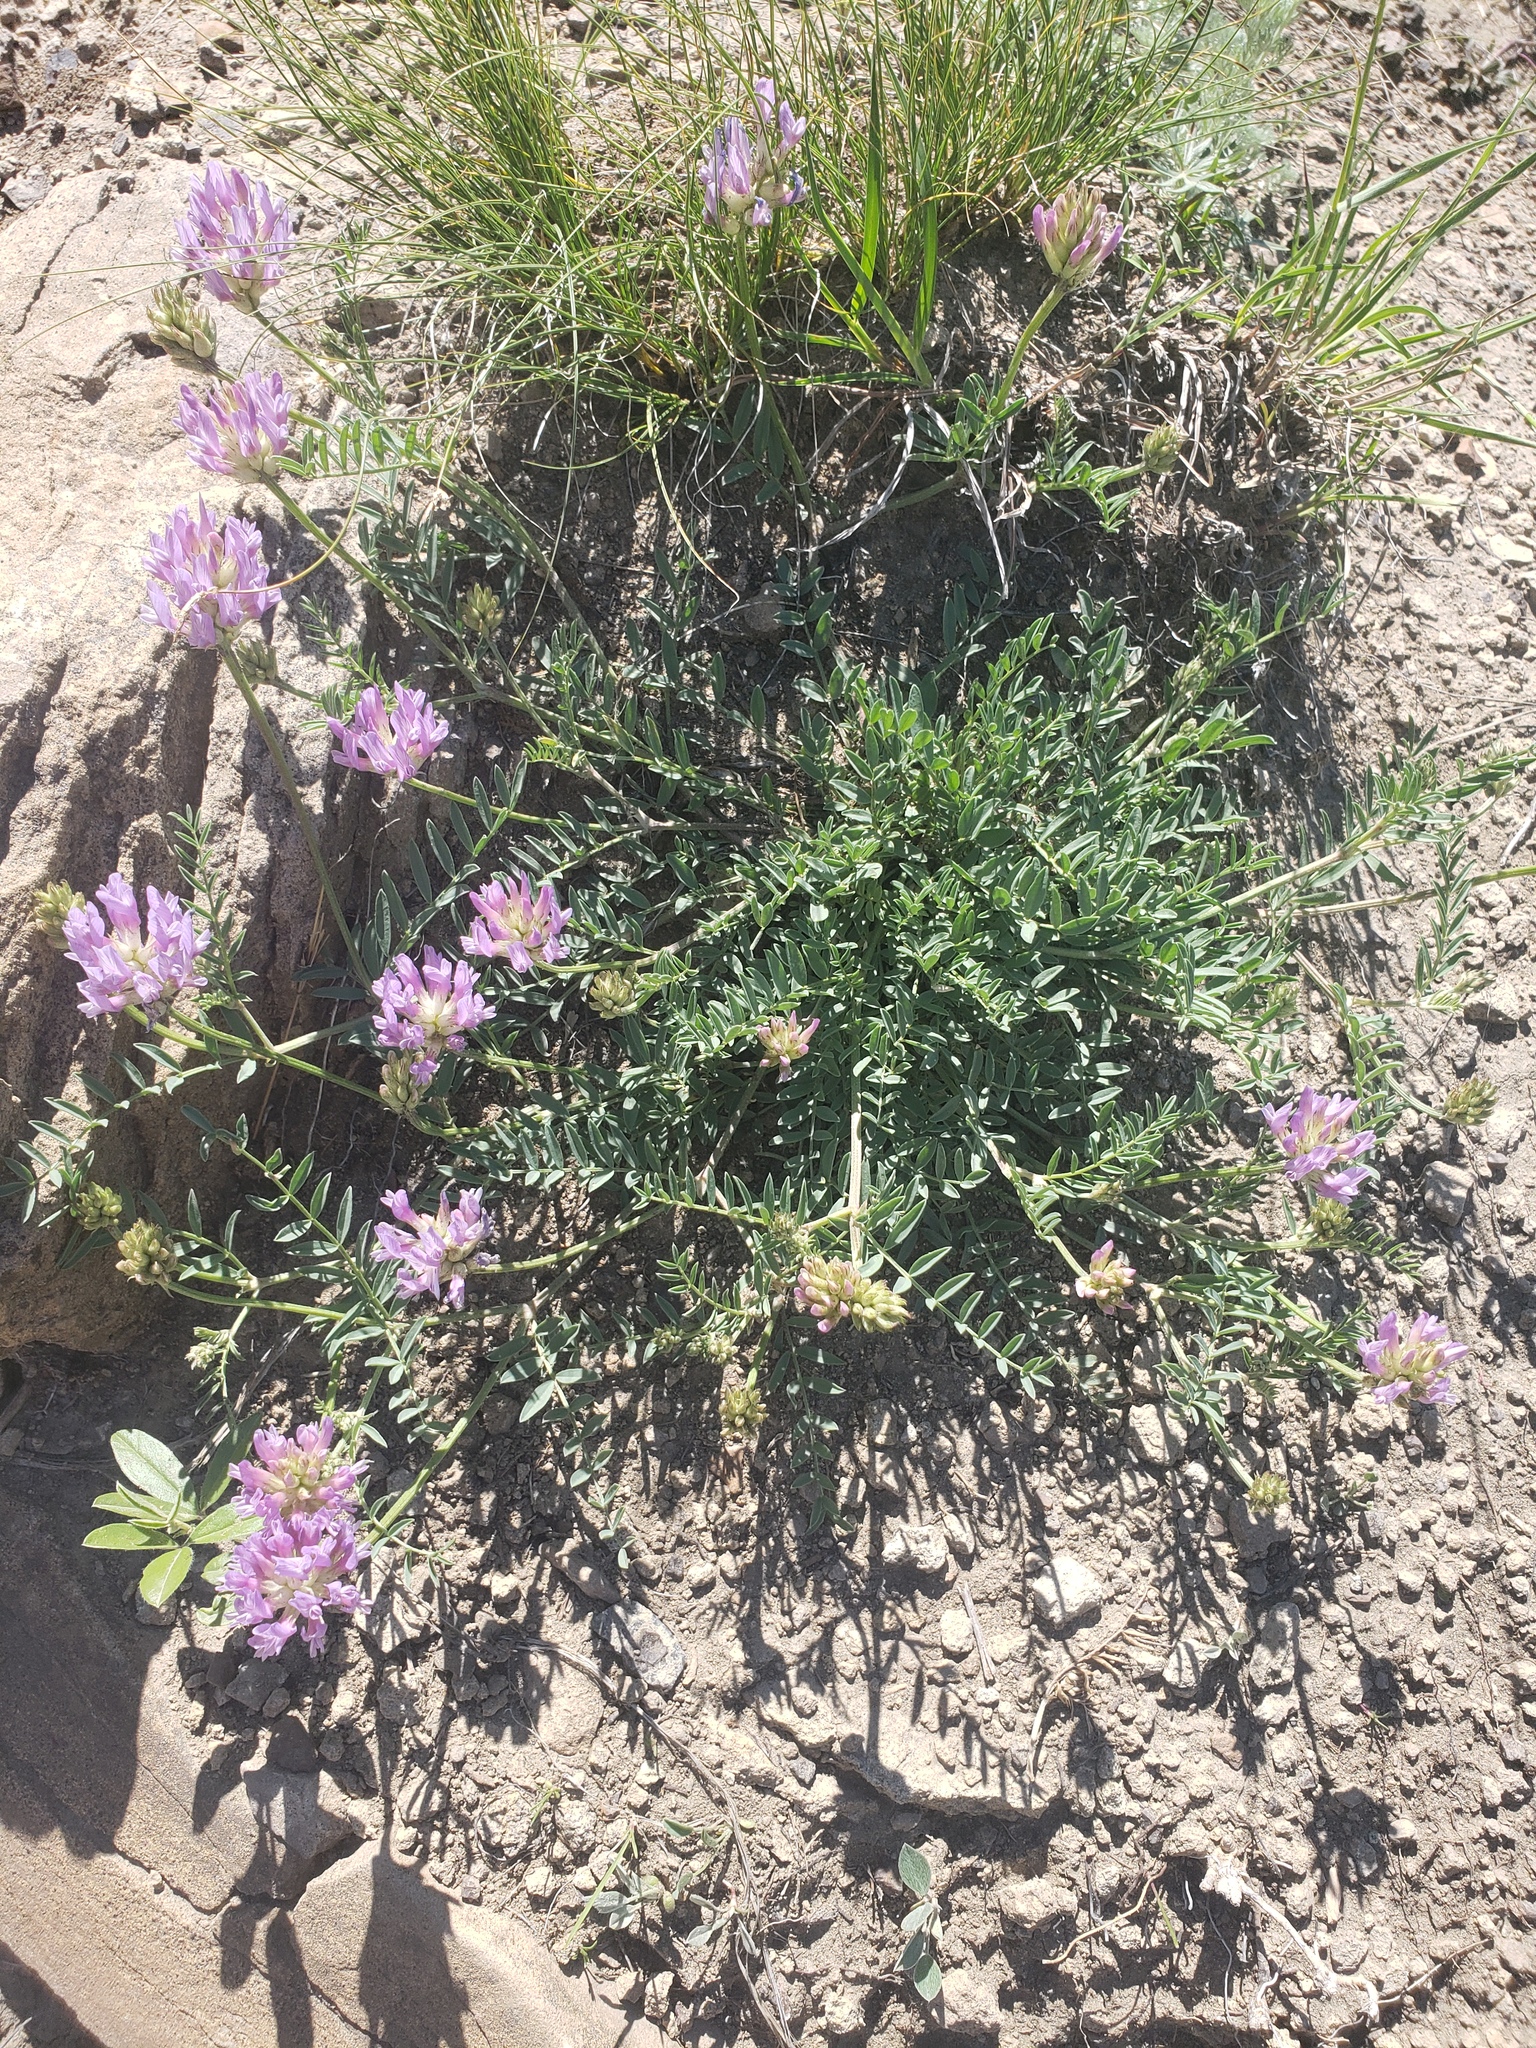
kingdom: Plantae
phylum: Tracheophyta
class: Magnoliopsida
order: Fabales
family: Fabaceae
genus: Astragalus
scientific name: Astragalus laxmannii
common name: Laxmann's milk-vetch
